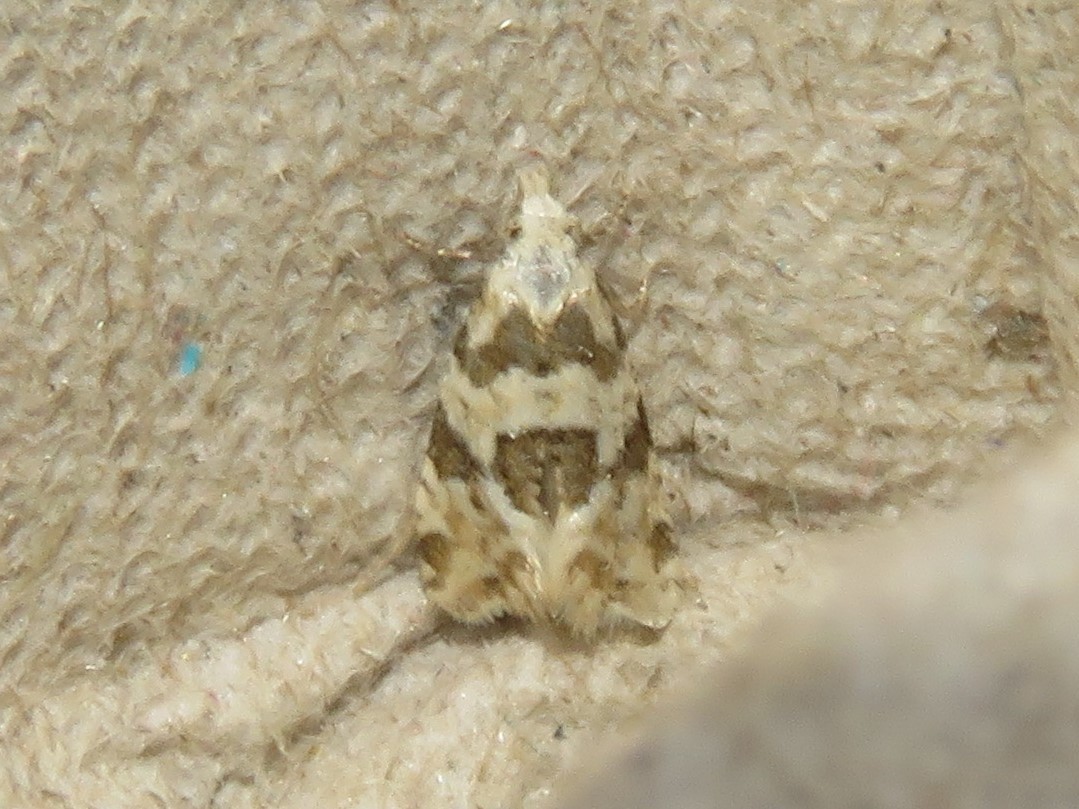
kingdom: Animalia
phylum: Arthropoda
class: Insecta
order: Lepidoptera
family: Tortricidae
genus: Aethes
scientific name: Aethes argentilimitana
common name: Silver-bordered aethes
